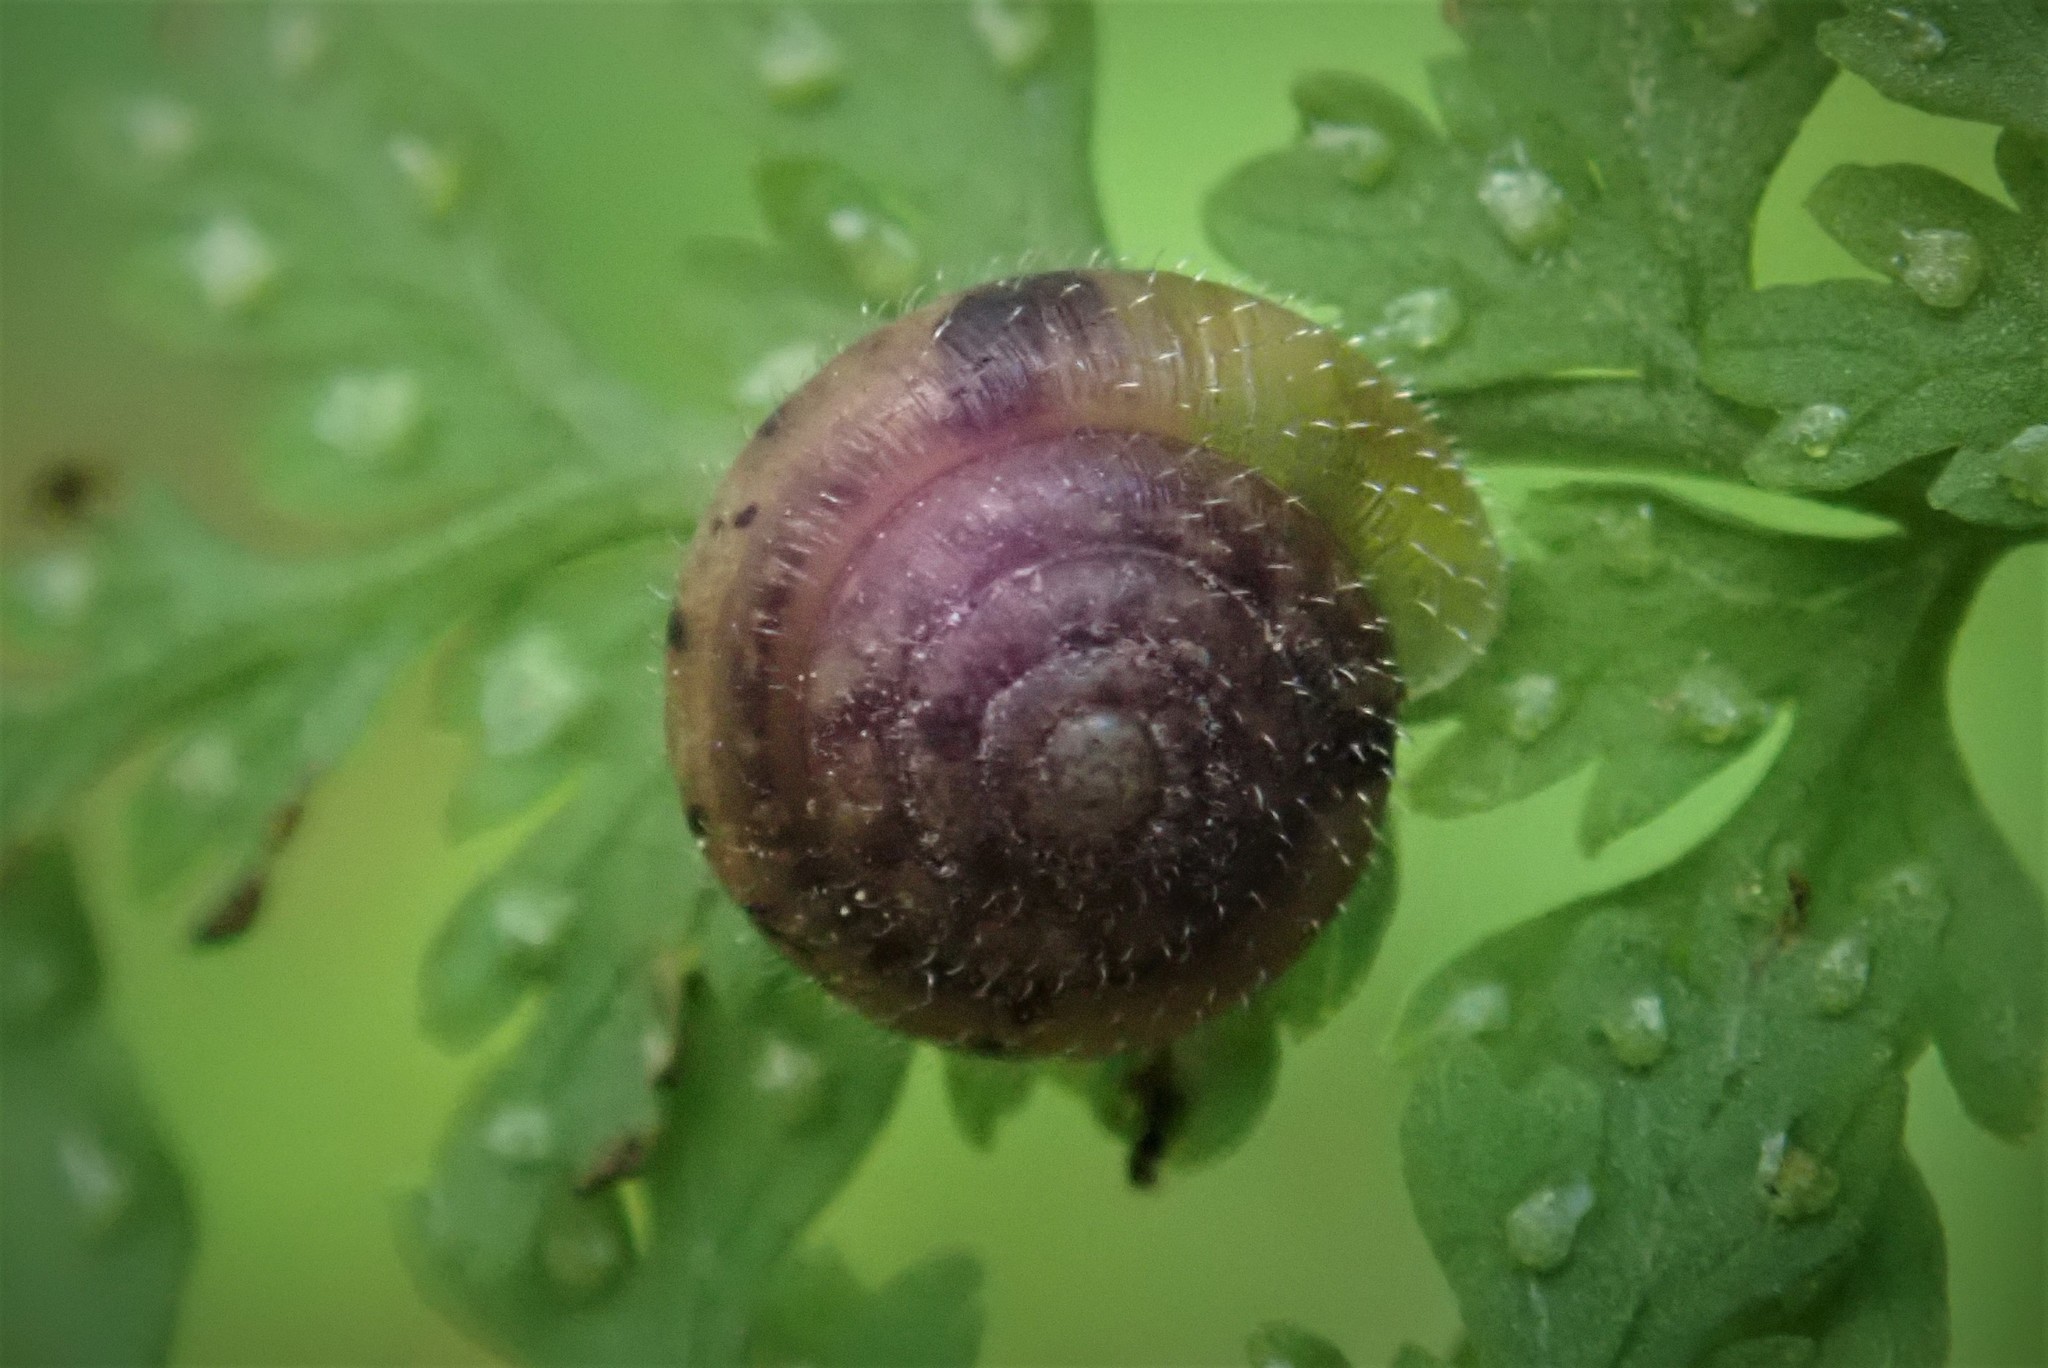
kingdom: Animalia
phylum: Mollusca
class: Gastropoda
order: Stylommatophora
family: Hygromiidae
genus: Trochulus
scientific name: Trochulus hispidus
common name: Hairy snail
